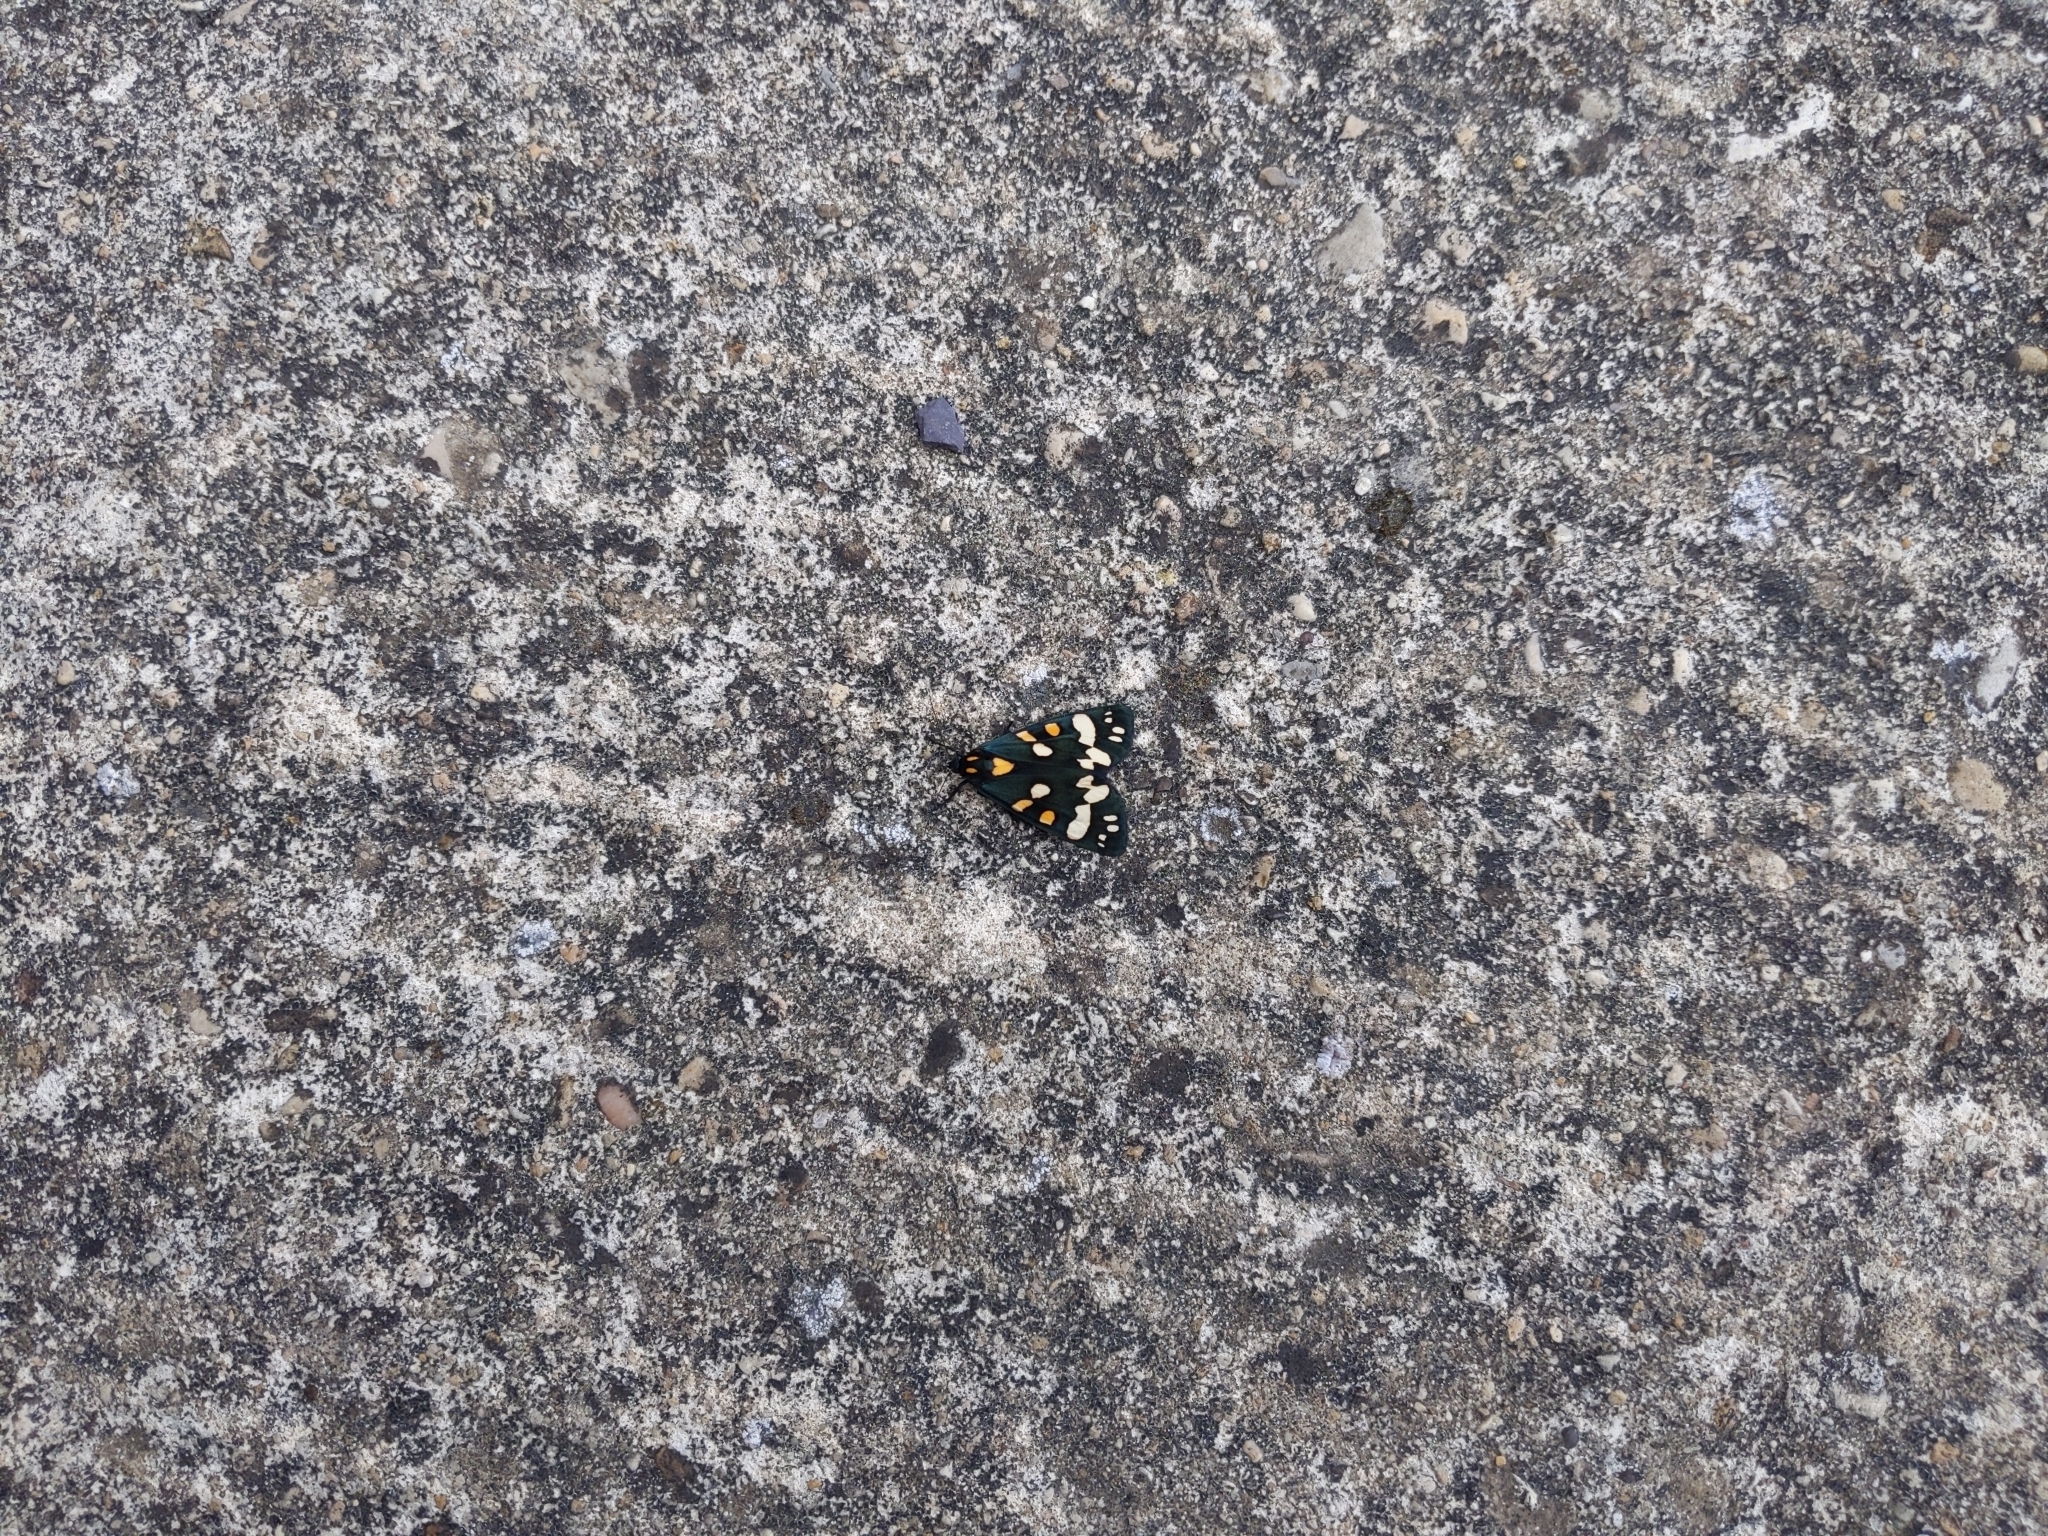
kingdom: Animalia
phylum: Arthropoda
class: Insecta
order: Lepidoptera
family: Erebidae
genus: Callimorpha
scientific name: Callimorpha dominula
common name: Scarlet tiger
